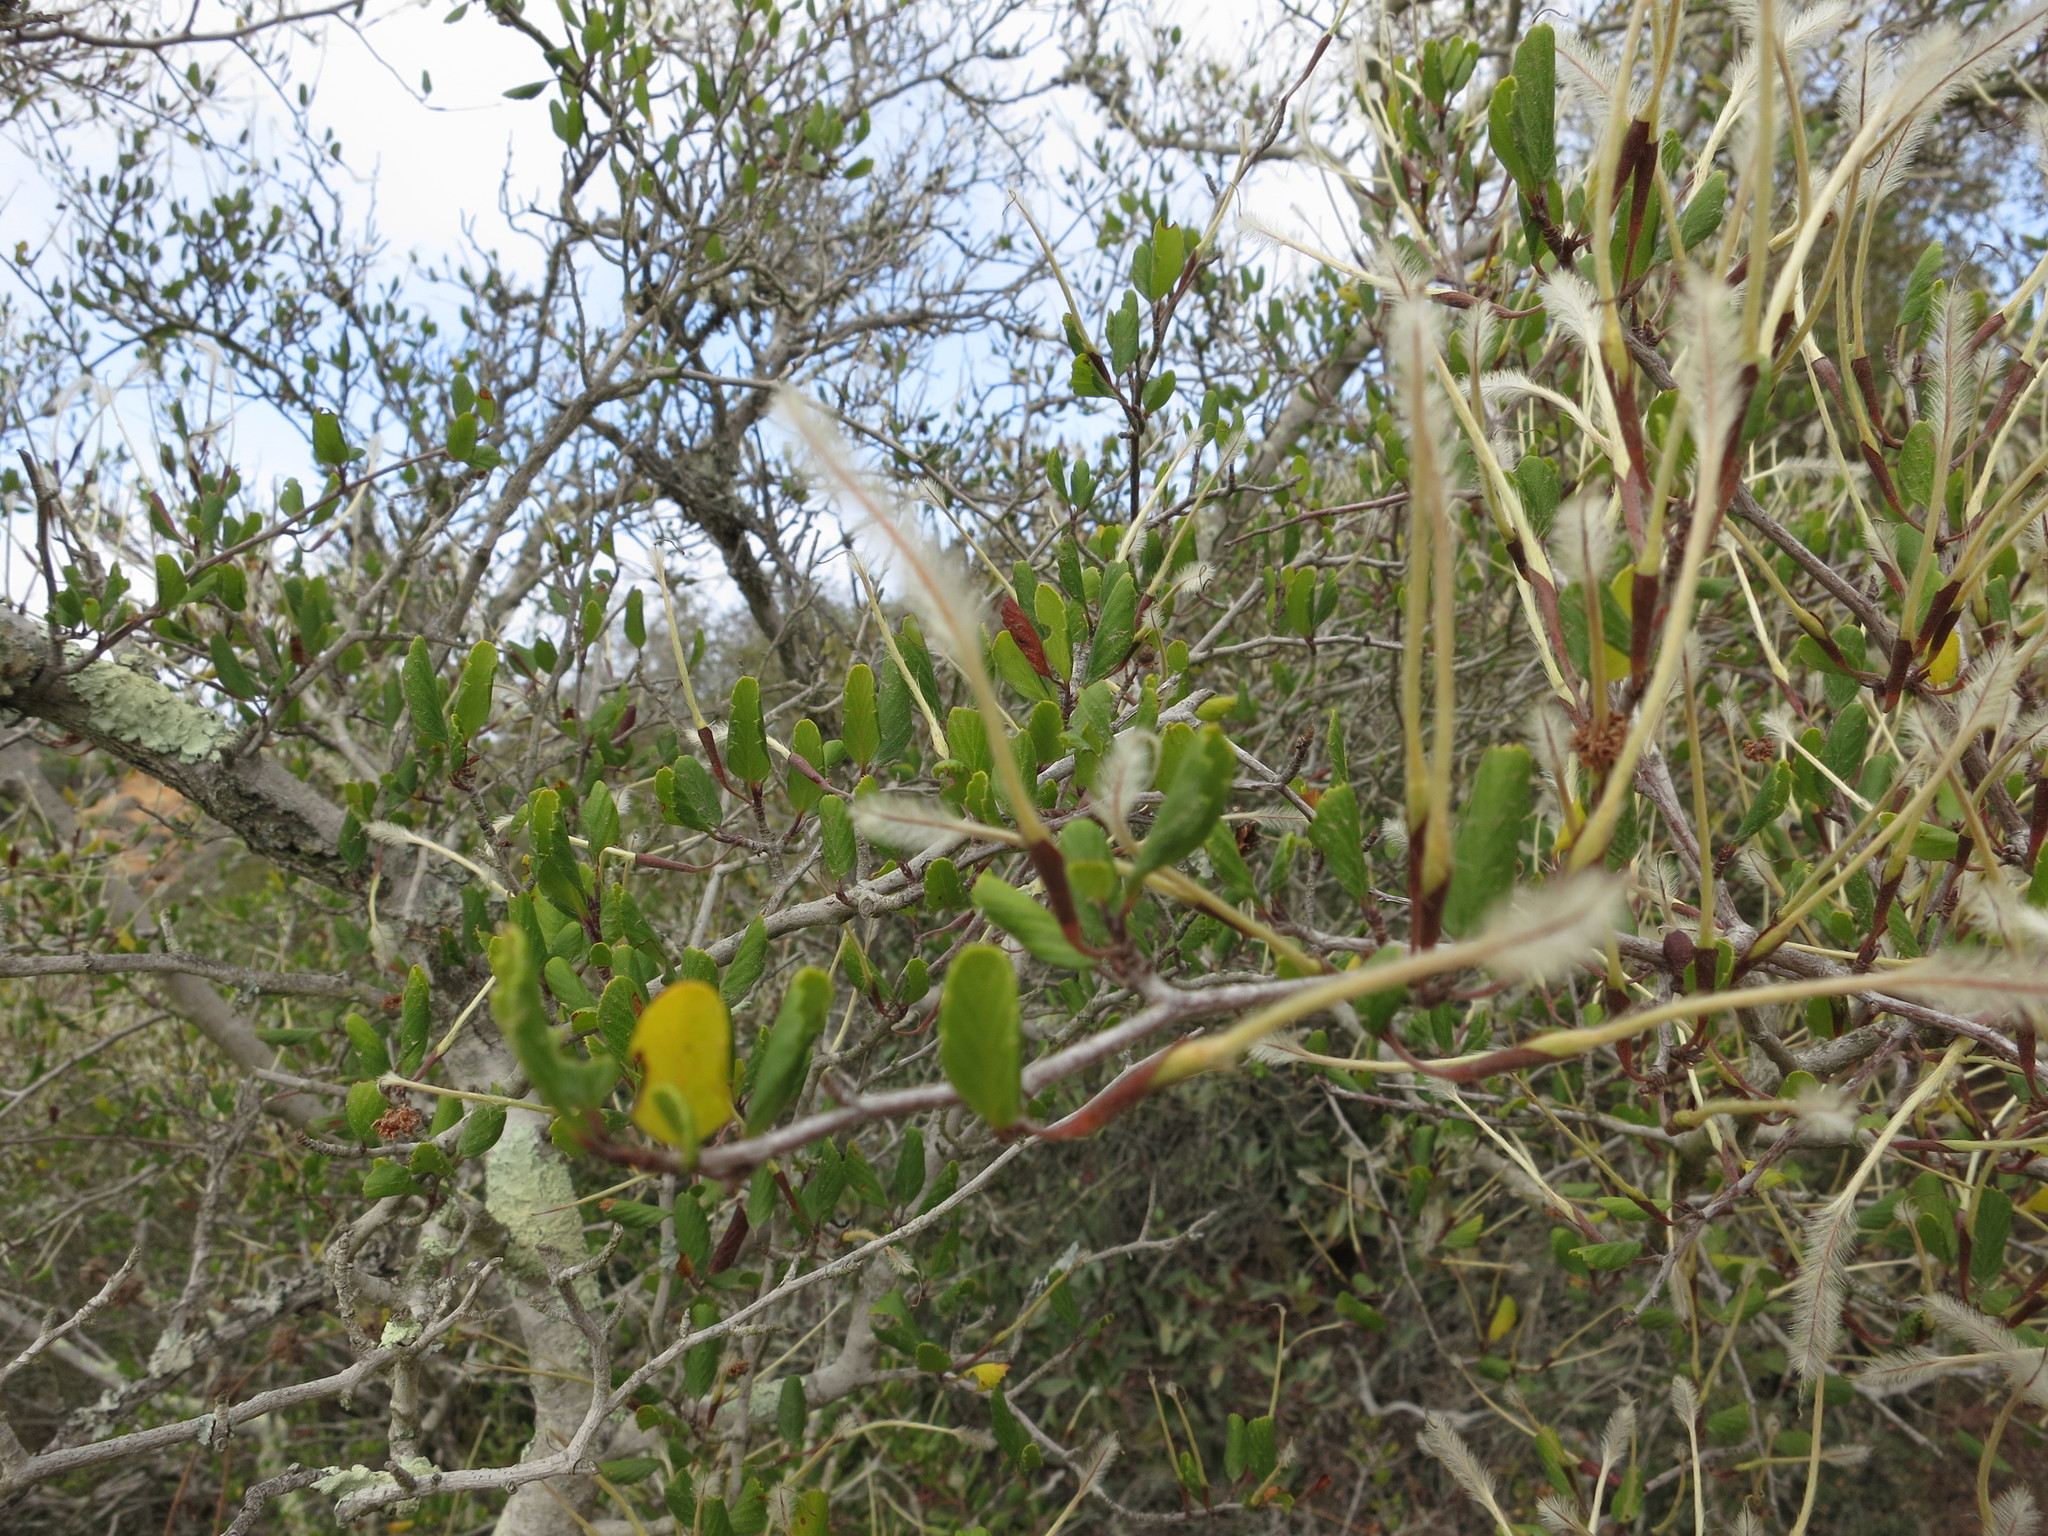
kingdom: Plantae
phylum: Tracheophyta
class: Magnoliopsida
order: Rosales
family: Rosaceae
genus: Cercocarpus
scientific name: Cercocarpus montanus
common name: Alder-leaf cercocarpus
